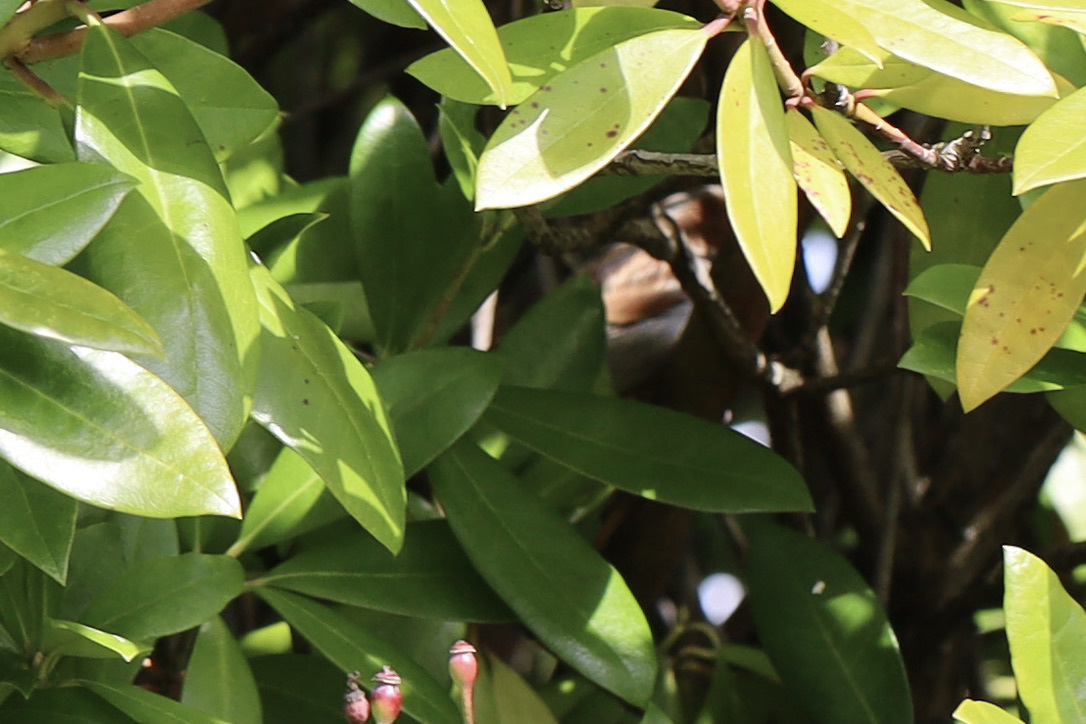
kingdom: Animalia
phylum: Chordata
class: Aves
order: Passeriformes
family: Passeridae
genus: Passer
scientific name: Passer domesticus
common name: House sparrow
